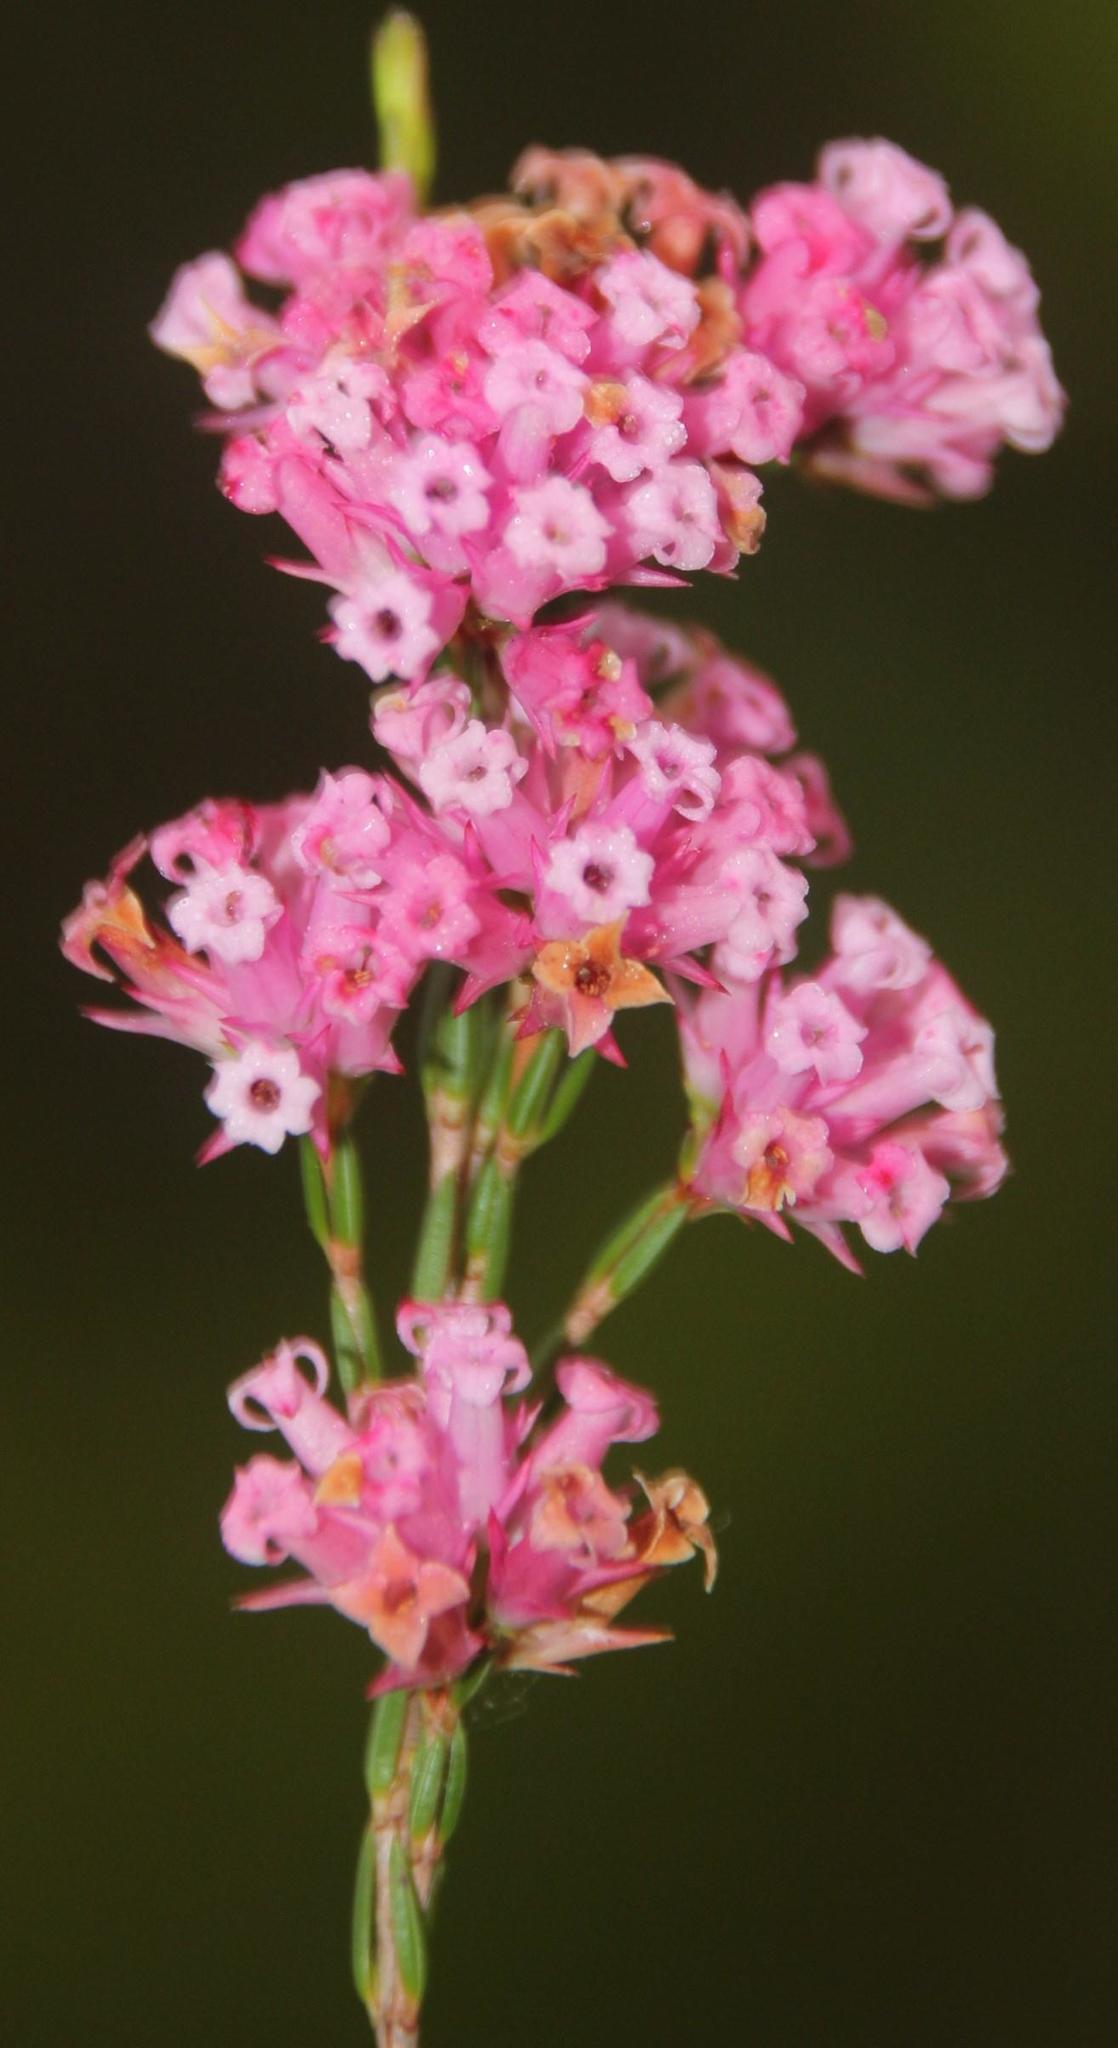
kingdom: Plantae
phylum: Tracheophyta
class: Magnoliopsida
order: Ericales
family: Ericaceae
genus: Erica
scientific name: Erica daphniflora
